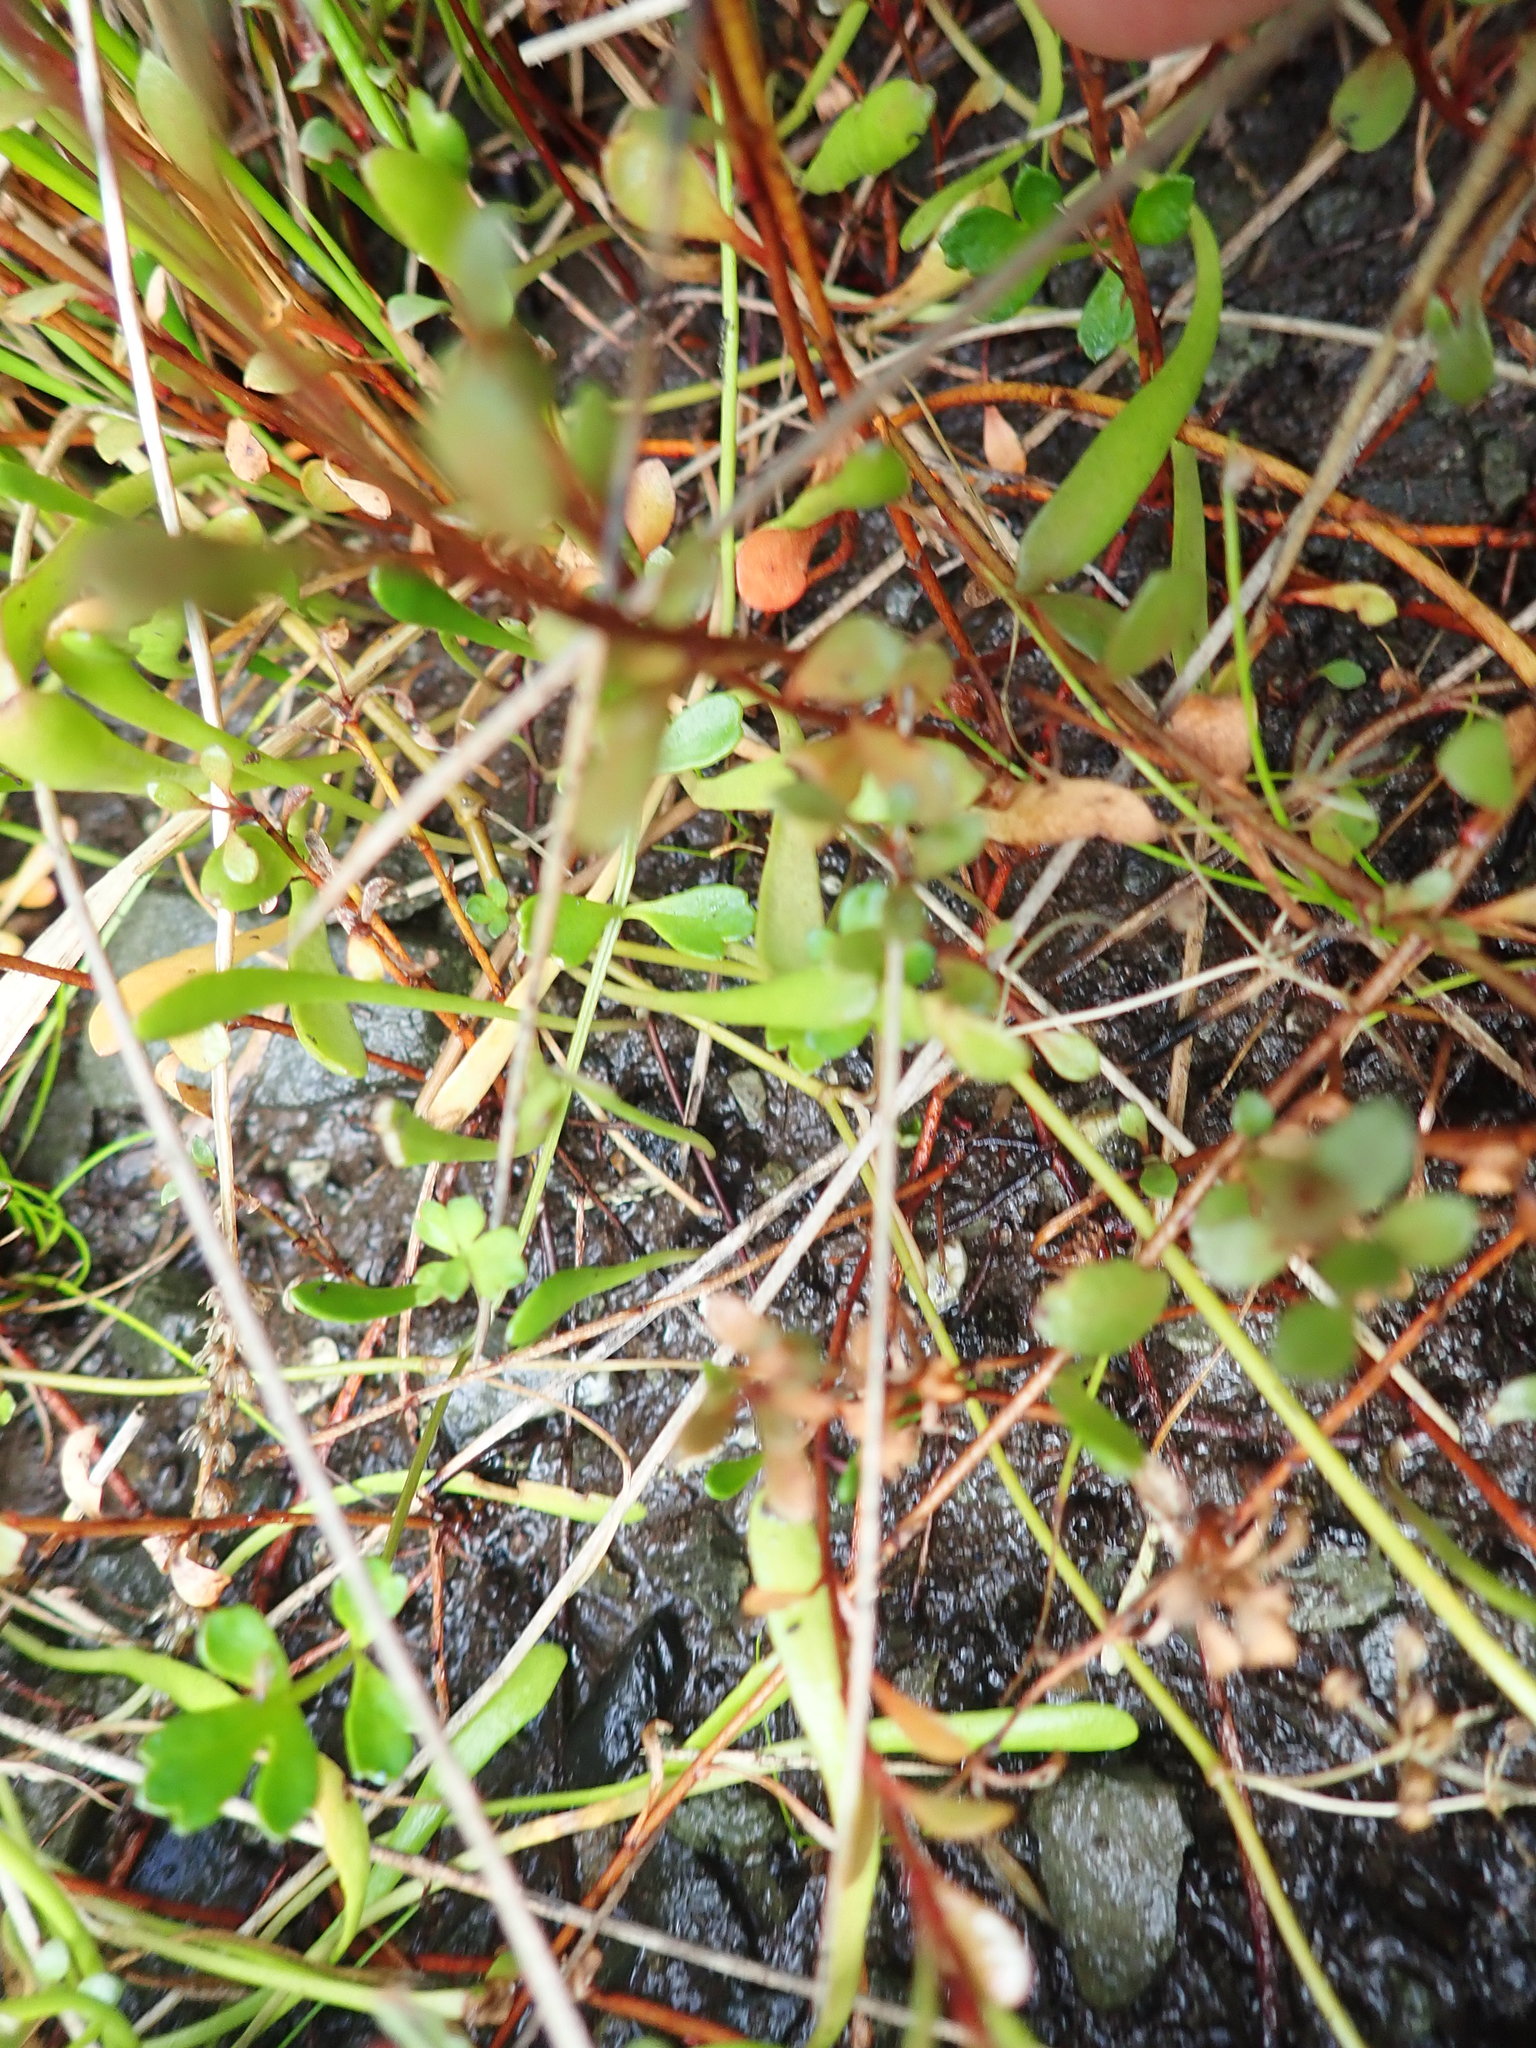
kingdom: Plantae
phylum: Tracheophyta
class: Magnoliopsida
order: Apiales
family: Apiaceae
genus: Apium
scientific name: Apium prostratum
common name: Prostrate marshwort
